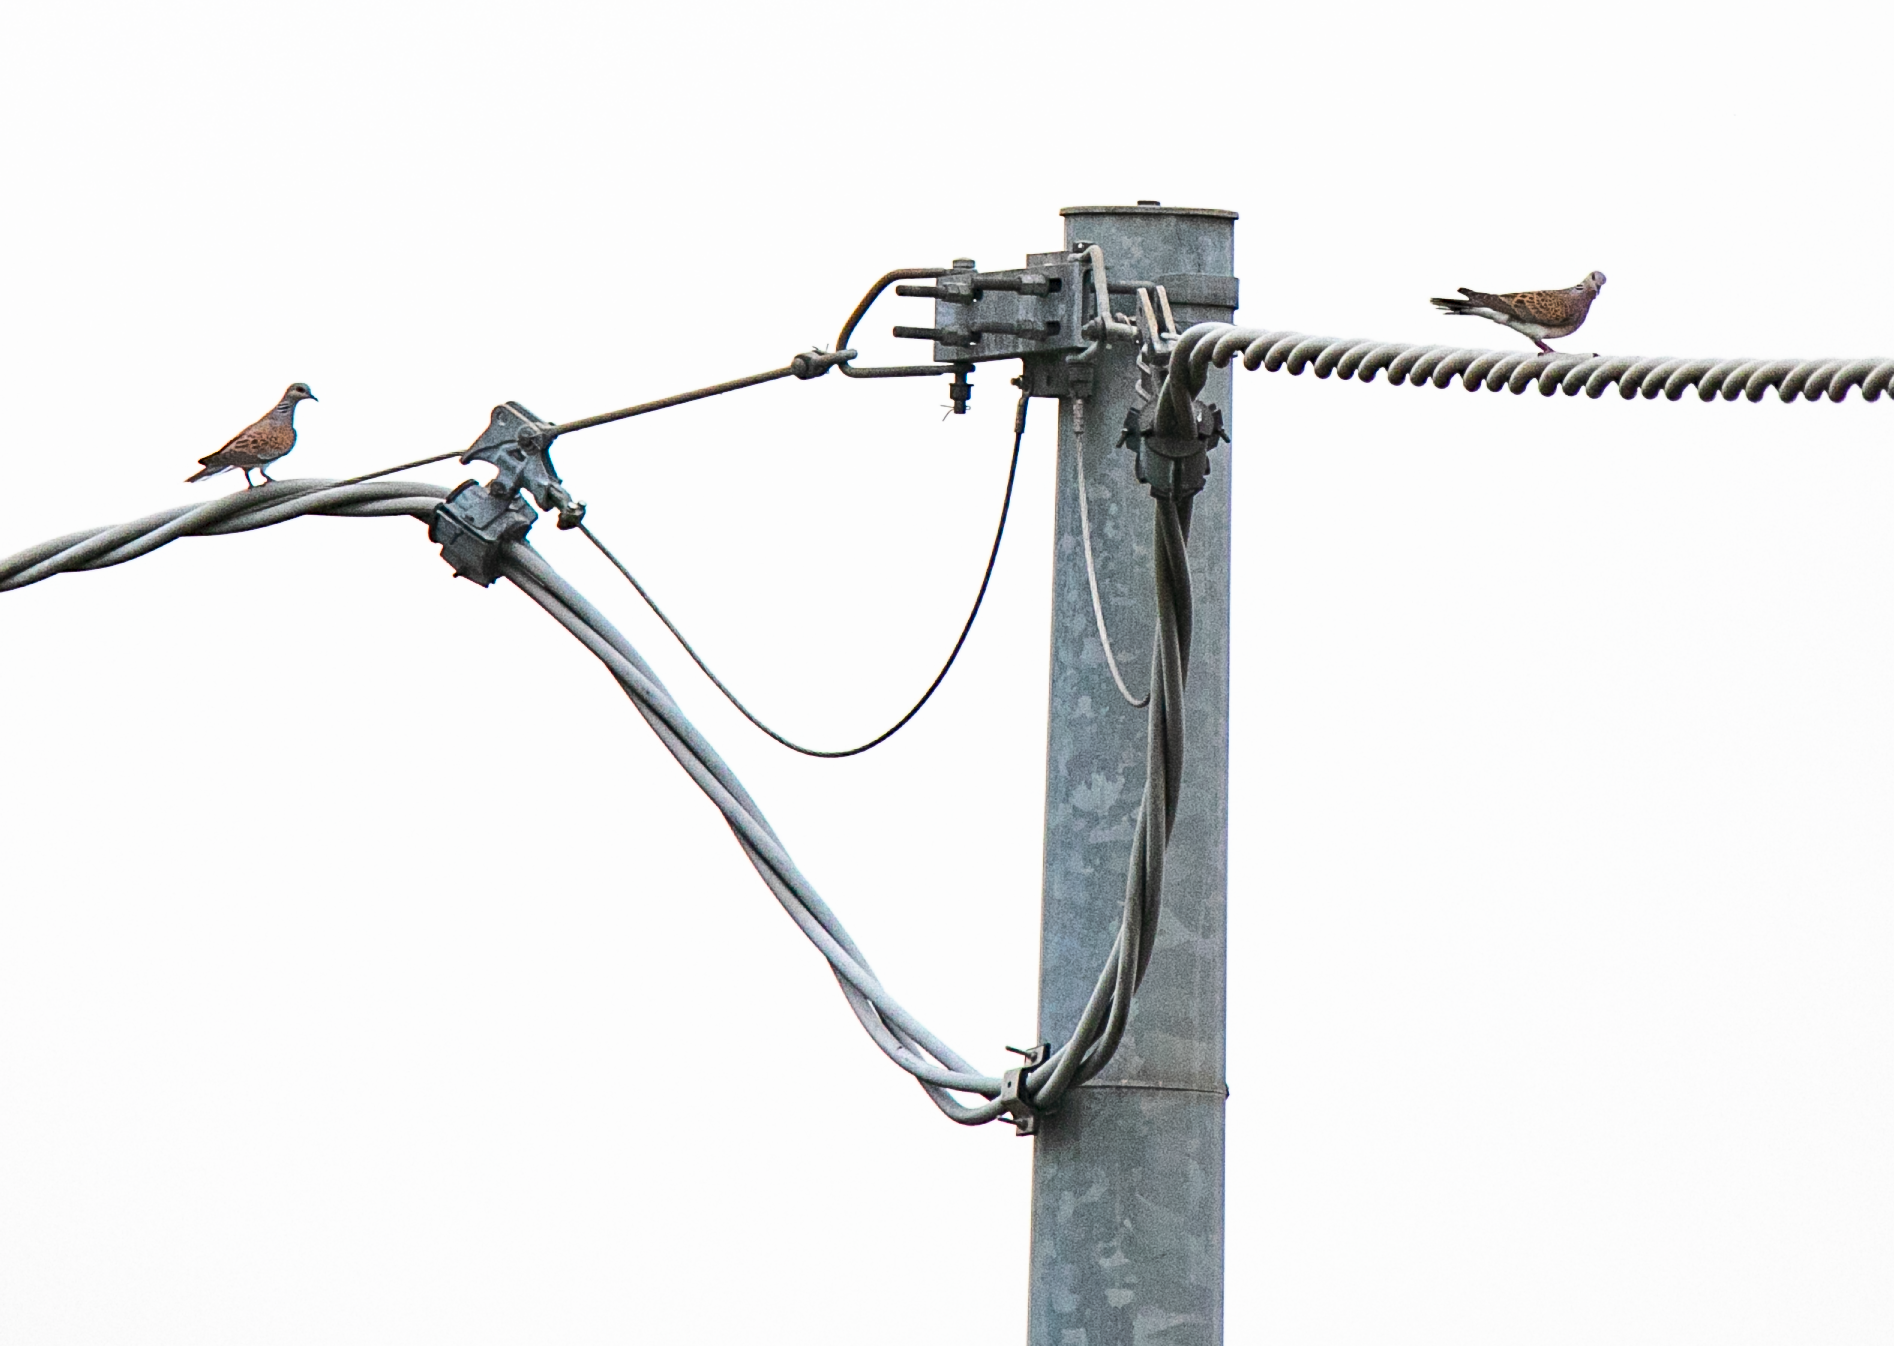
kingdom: Animalia
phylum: Chordata
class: Aves
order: Columbiformes
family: Columbidae
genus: Streptopelia
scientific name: Streptopelia turtur
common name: European turtle dove
